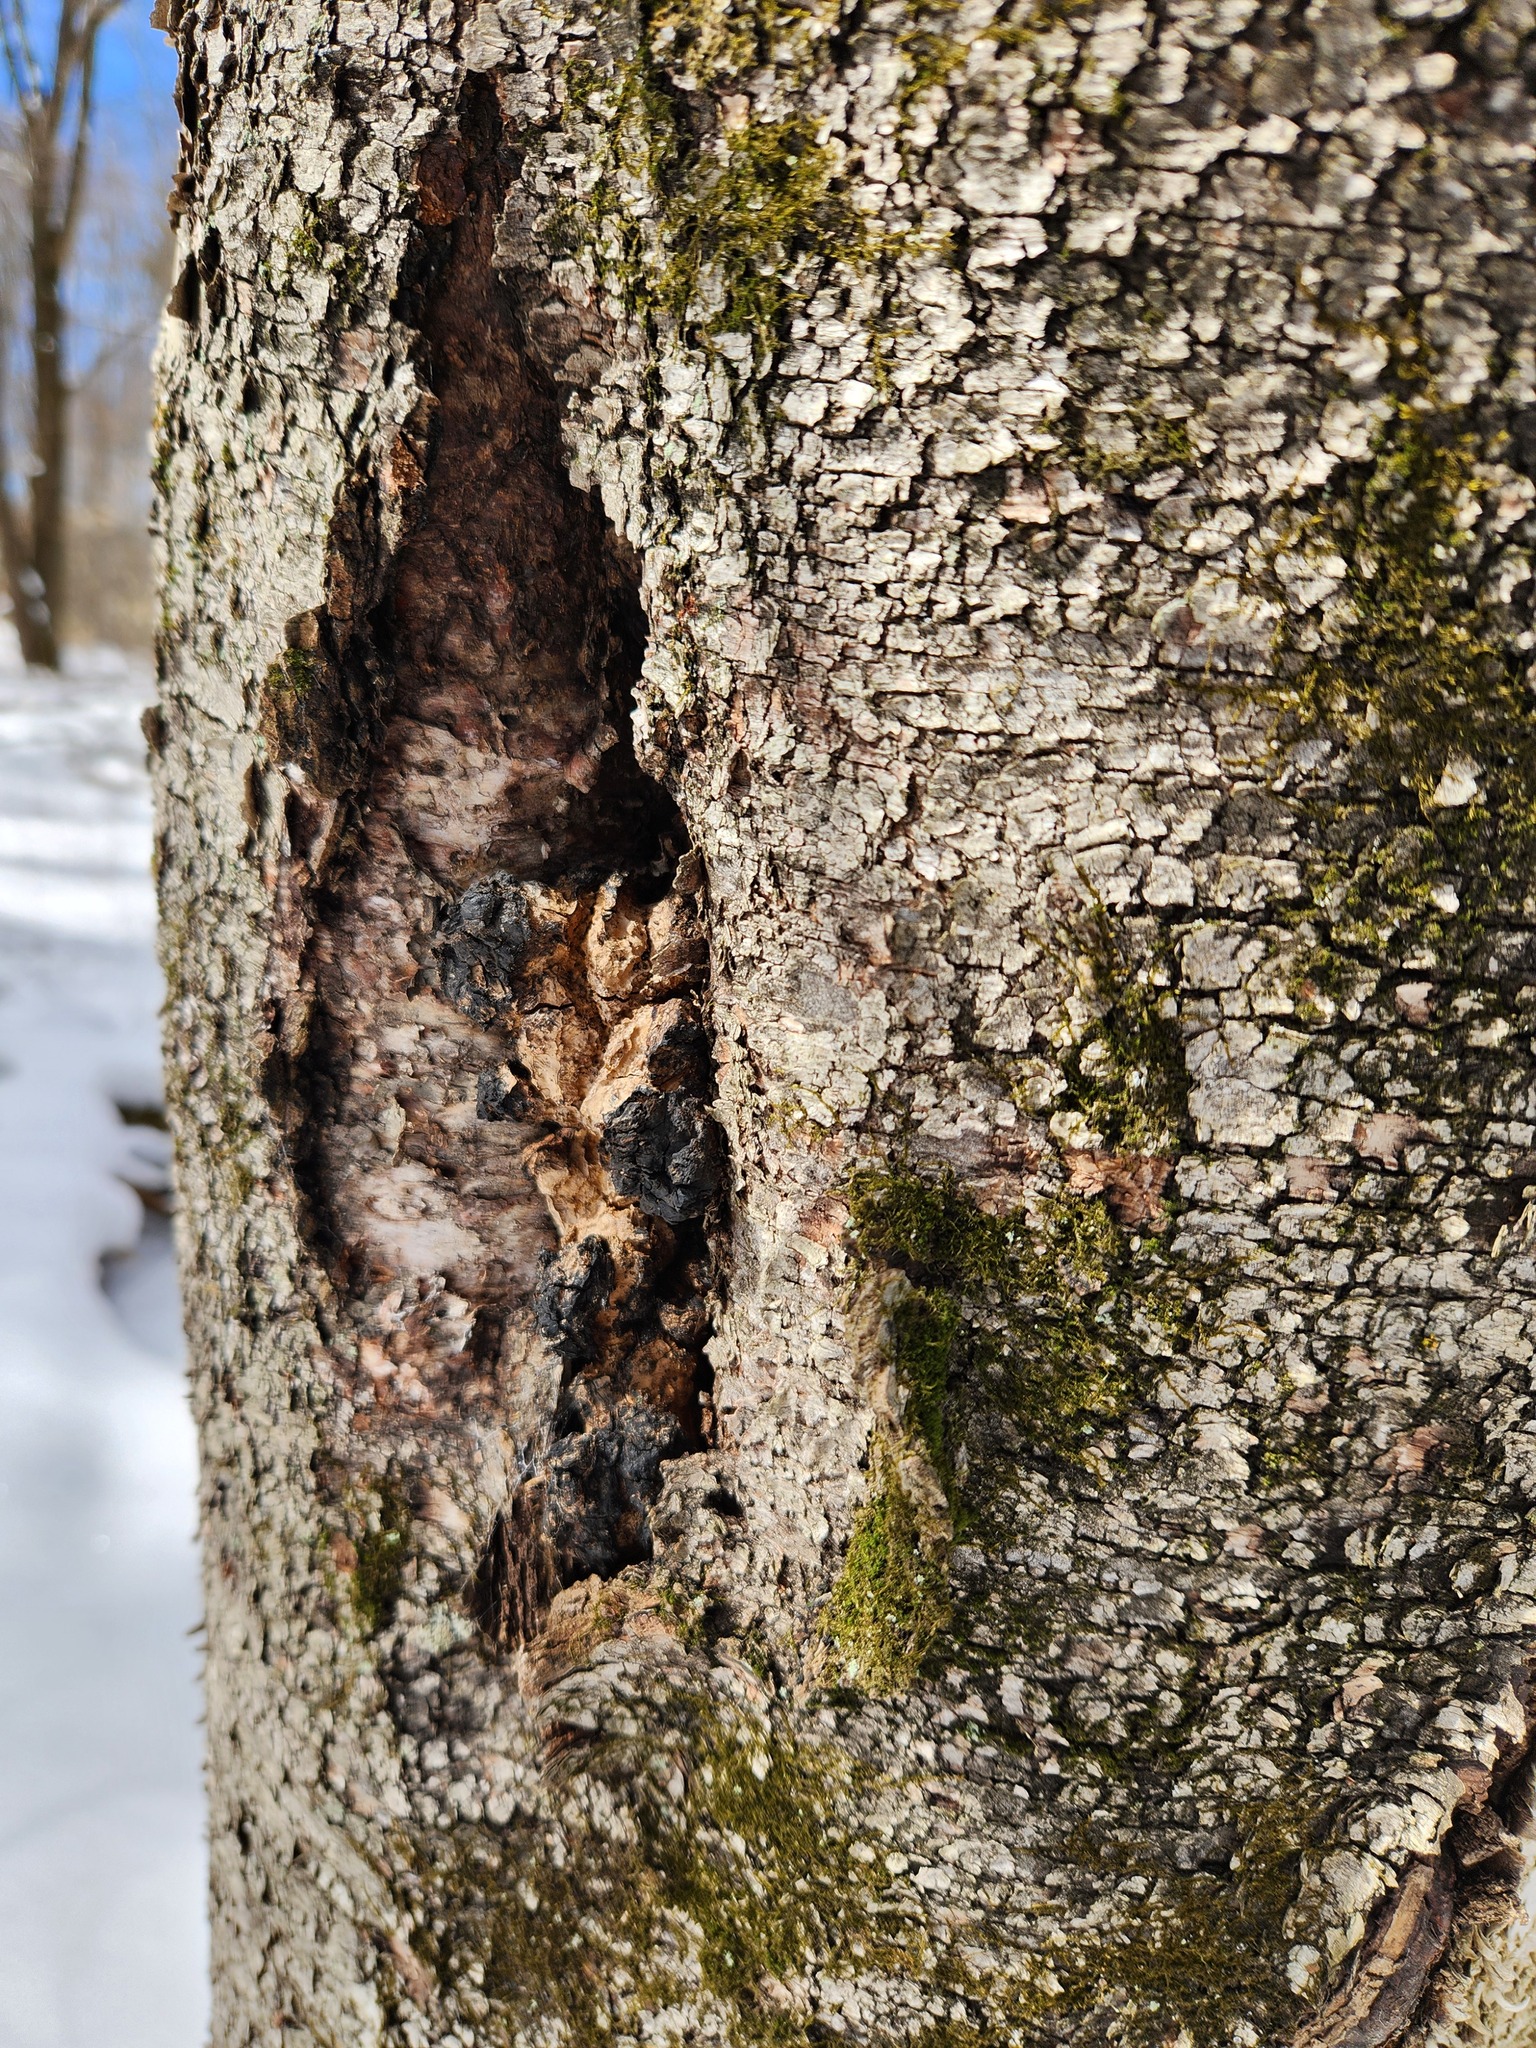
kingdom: Fungi
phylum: Basidiomycota
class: Agaricomycetes
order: Hymenochaetales
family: Hymenochaetaceae
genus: Inonotus
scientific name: Inonotus obliquus
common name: Chaga
